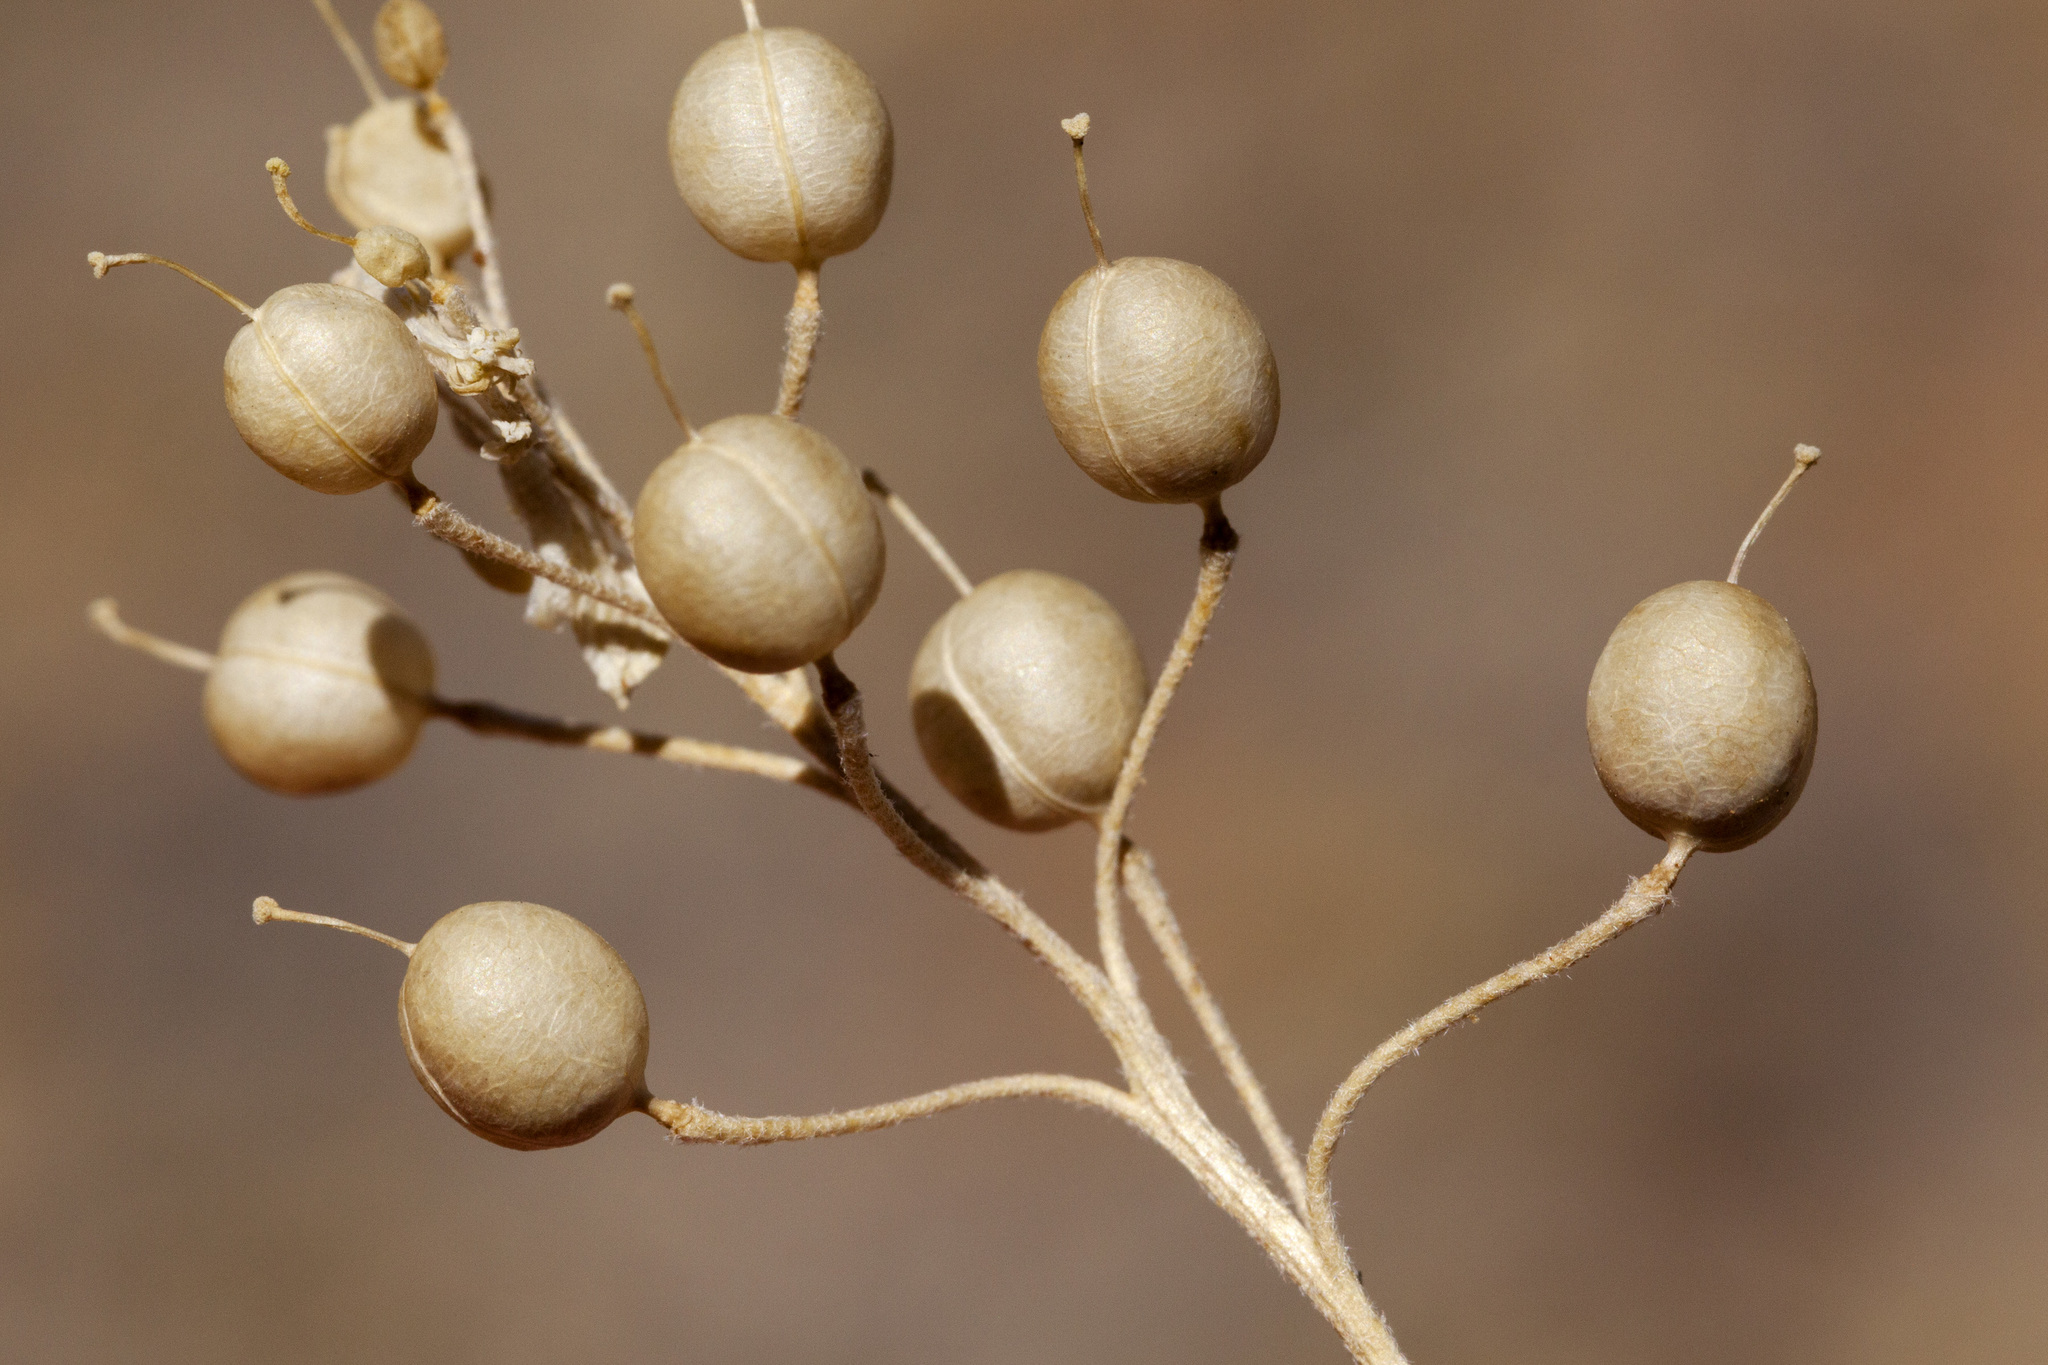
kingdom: Plantae
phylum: Tracheophyta
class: Magnoliopsida
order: Brassicales
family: Brassicaceae
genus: Physaria
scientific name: Physaria gordonii
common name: Gordon's bladderpod
